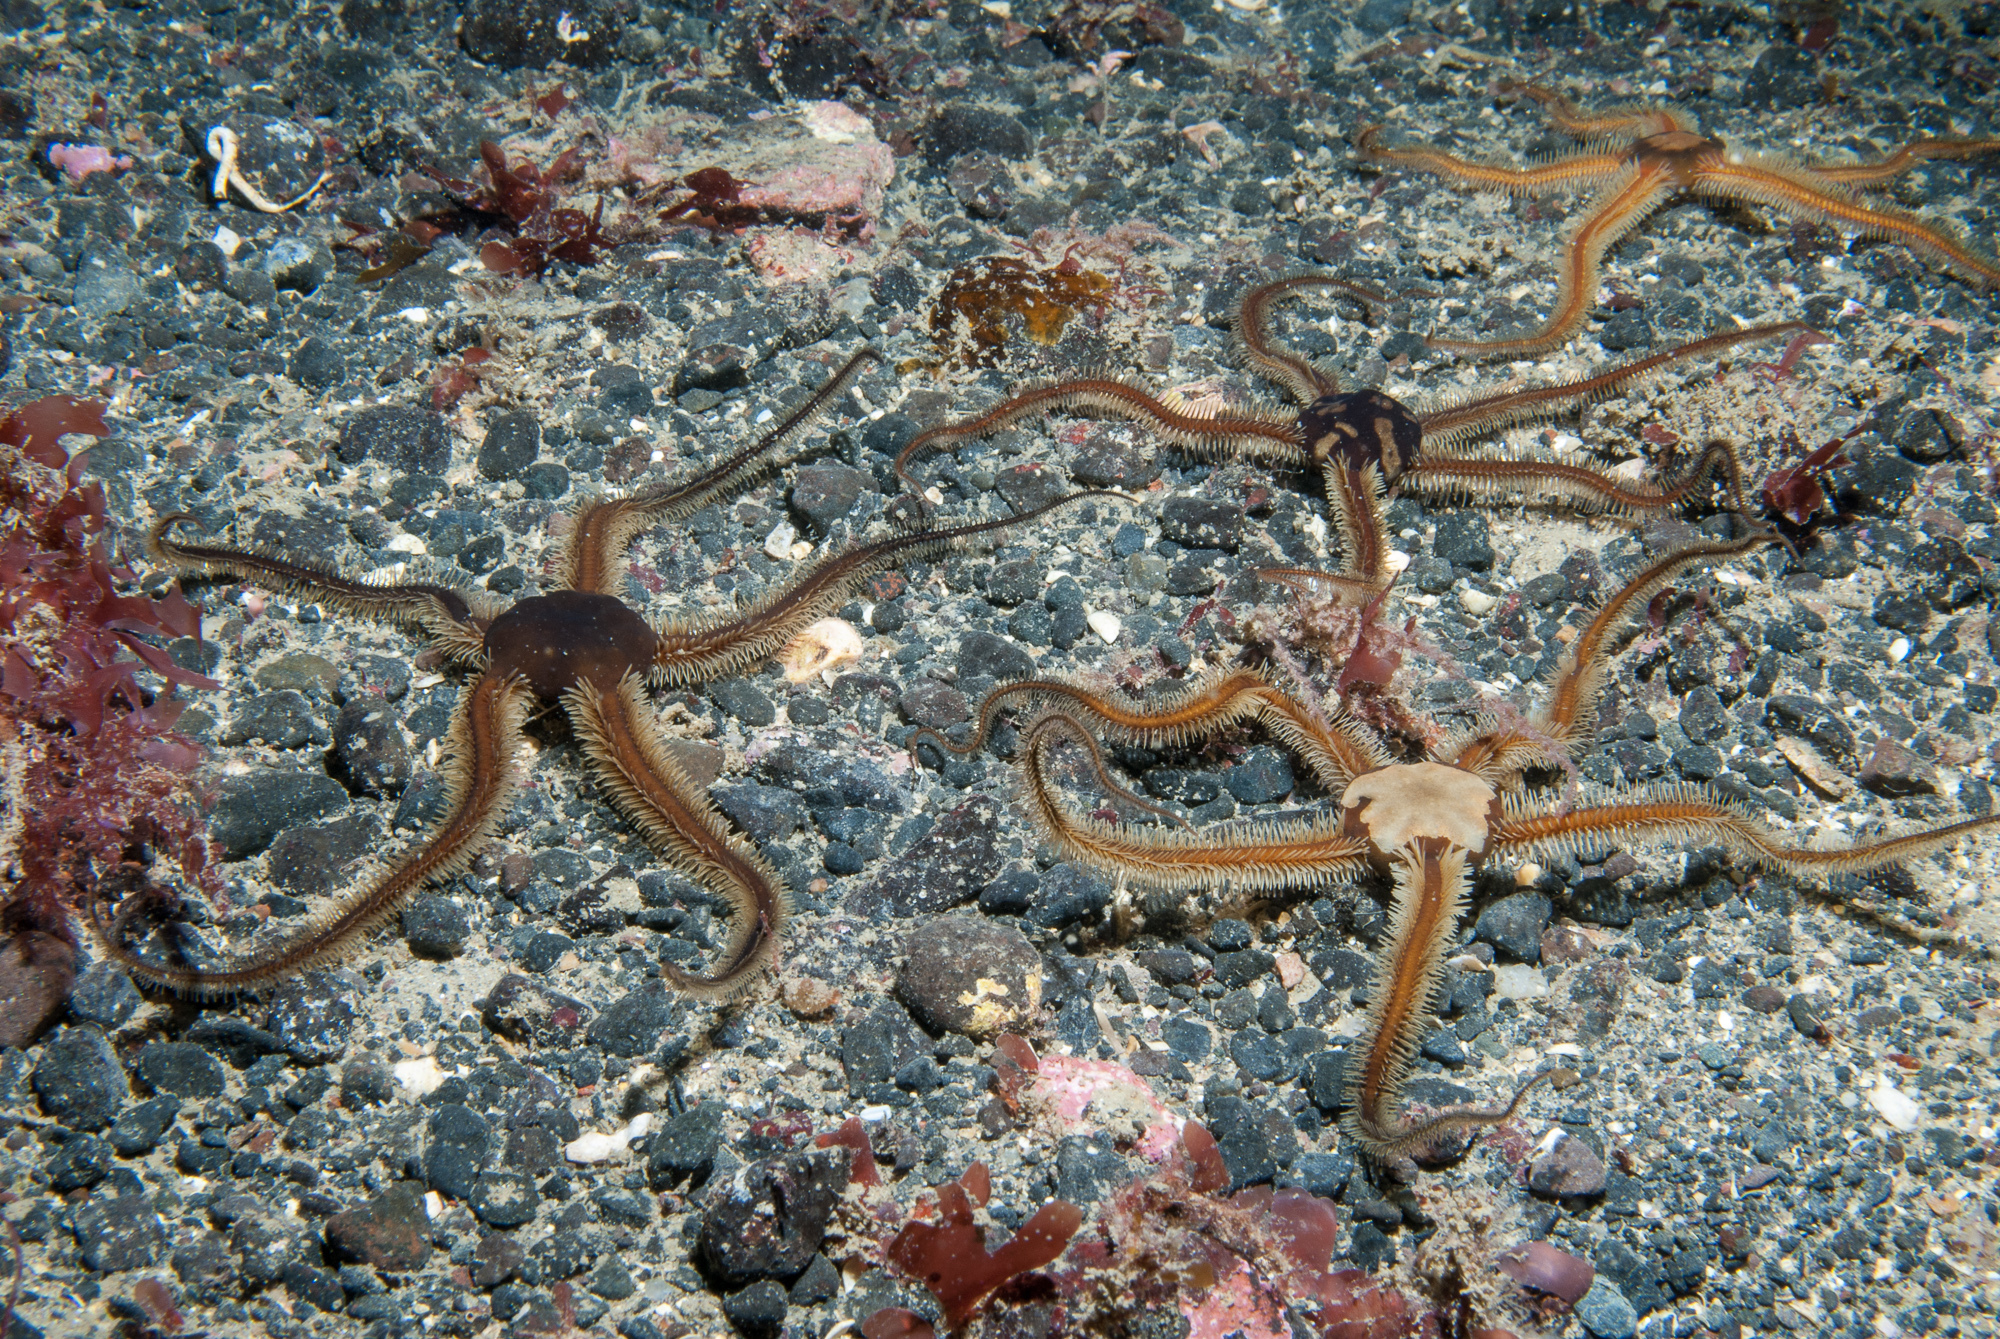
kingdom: Animalia
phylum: Echinodermata
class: Ophiuroidea
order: Ophiacanthida
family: Ophiotomidae
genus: Ophiocomina
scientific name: Ophiocomina nigra
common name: Black brittle star
